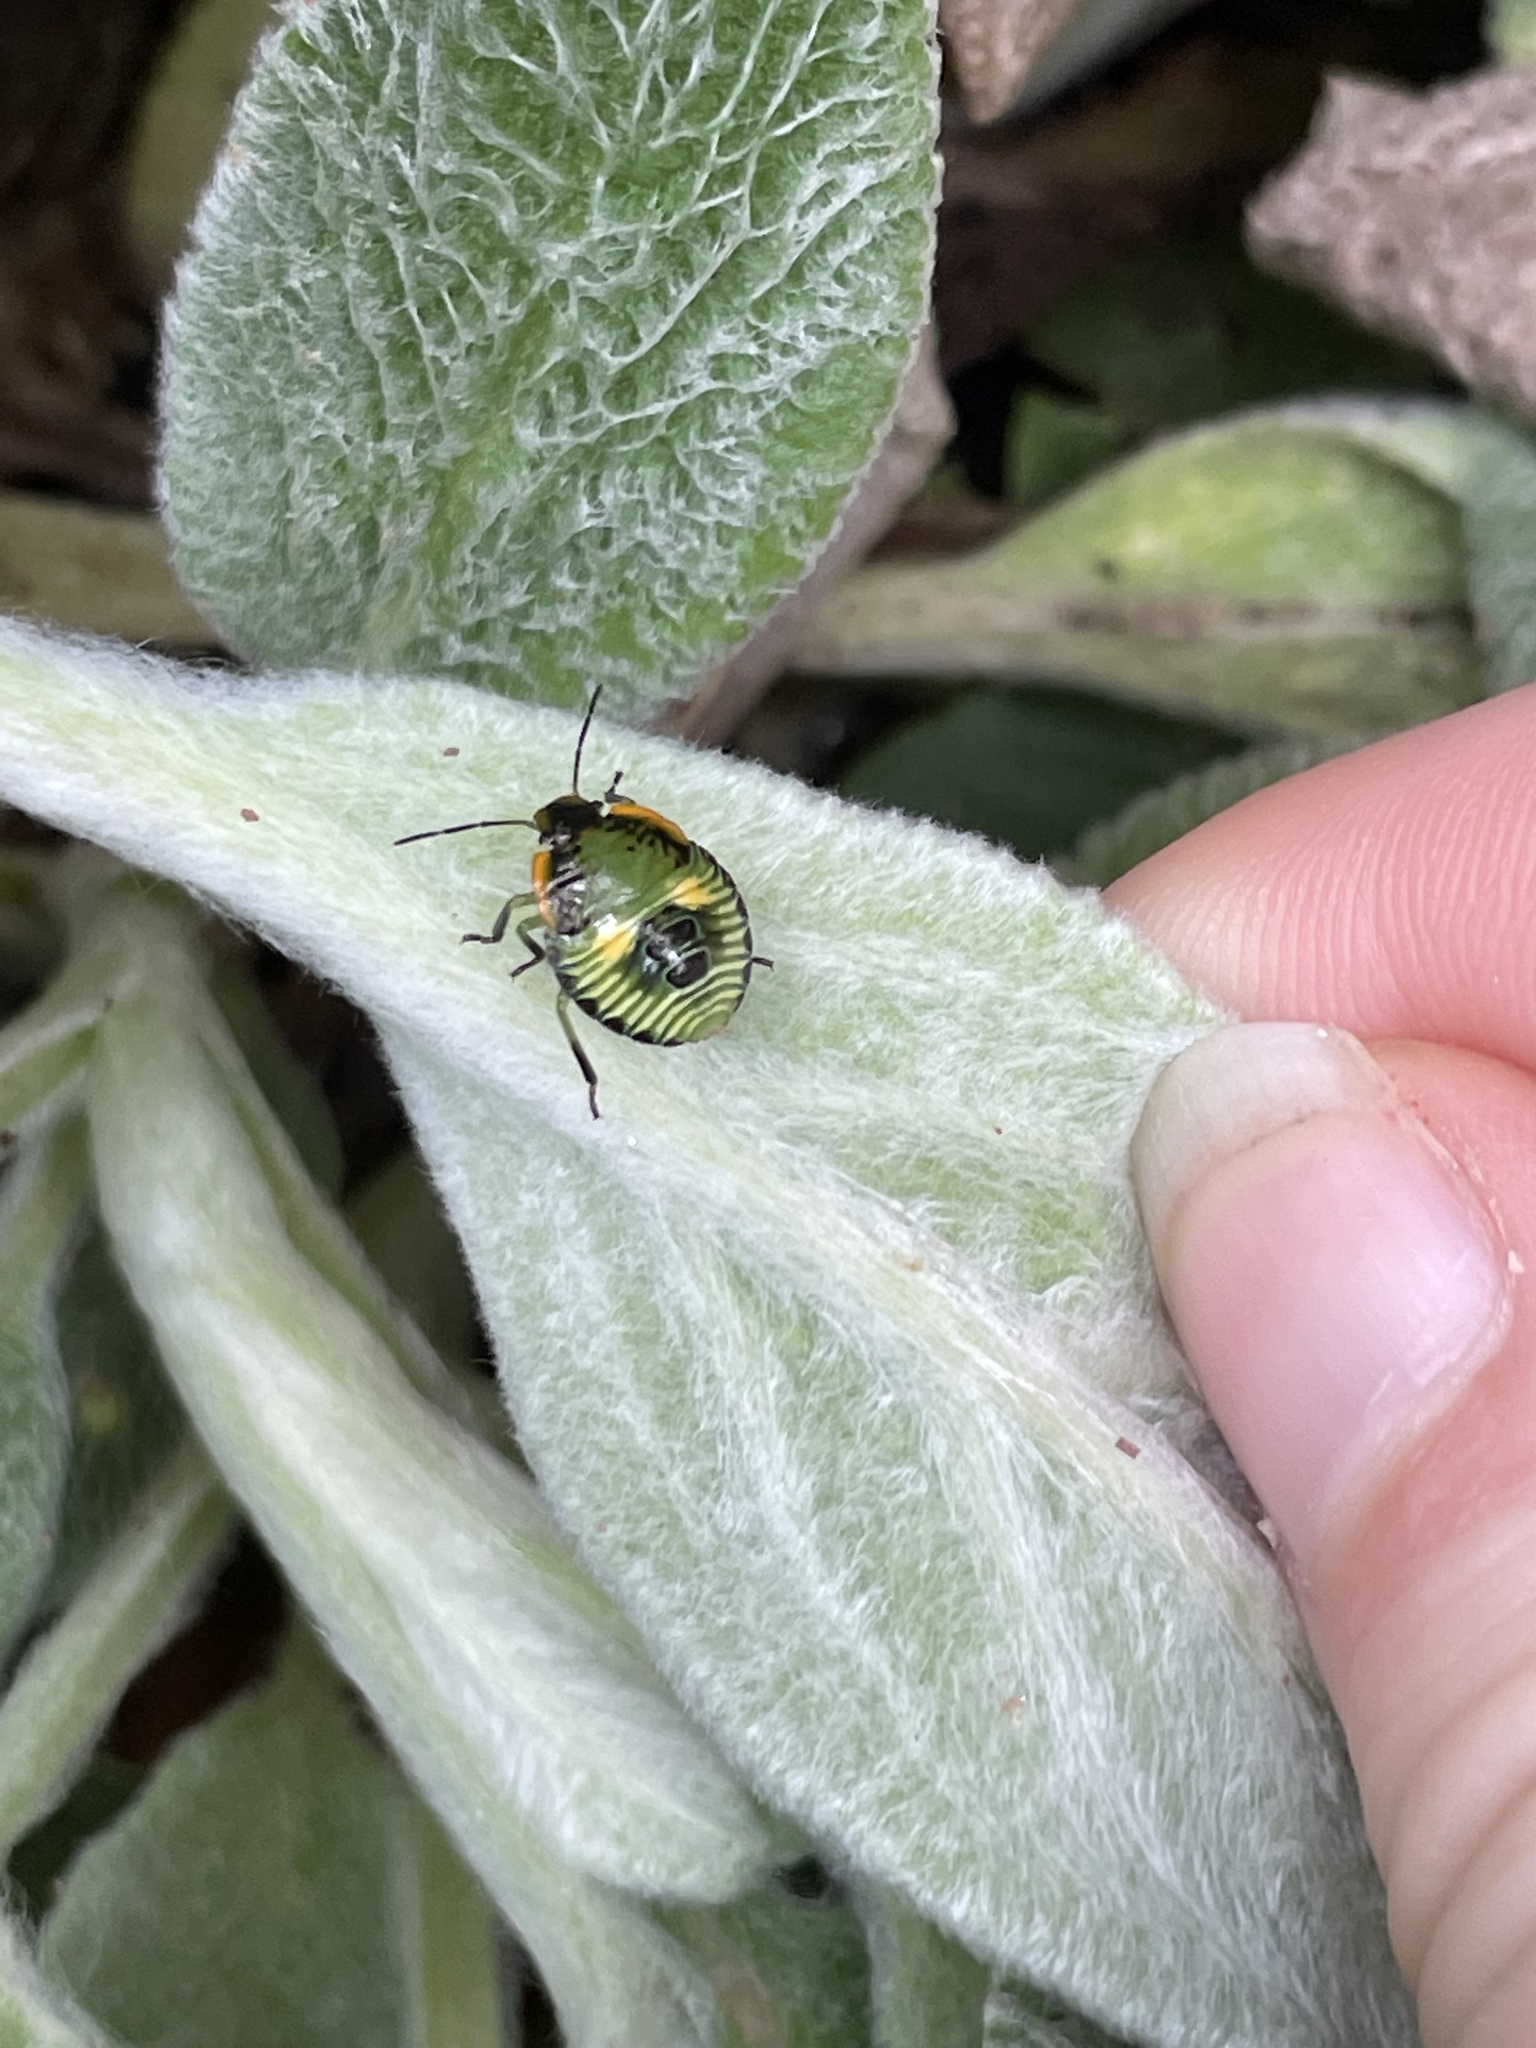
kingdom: Animalia
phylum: Arthropoda
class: Insecta
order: Hemiptera
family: Pentatomidae
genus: Chinavia
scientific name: Chinavia hilaris
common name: Green stink bug
